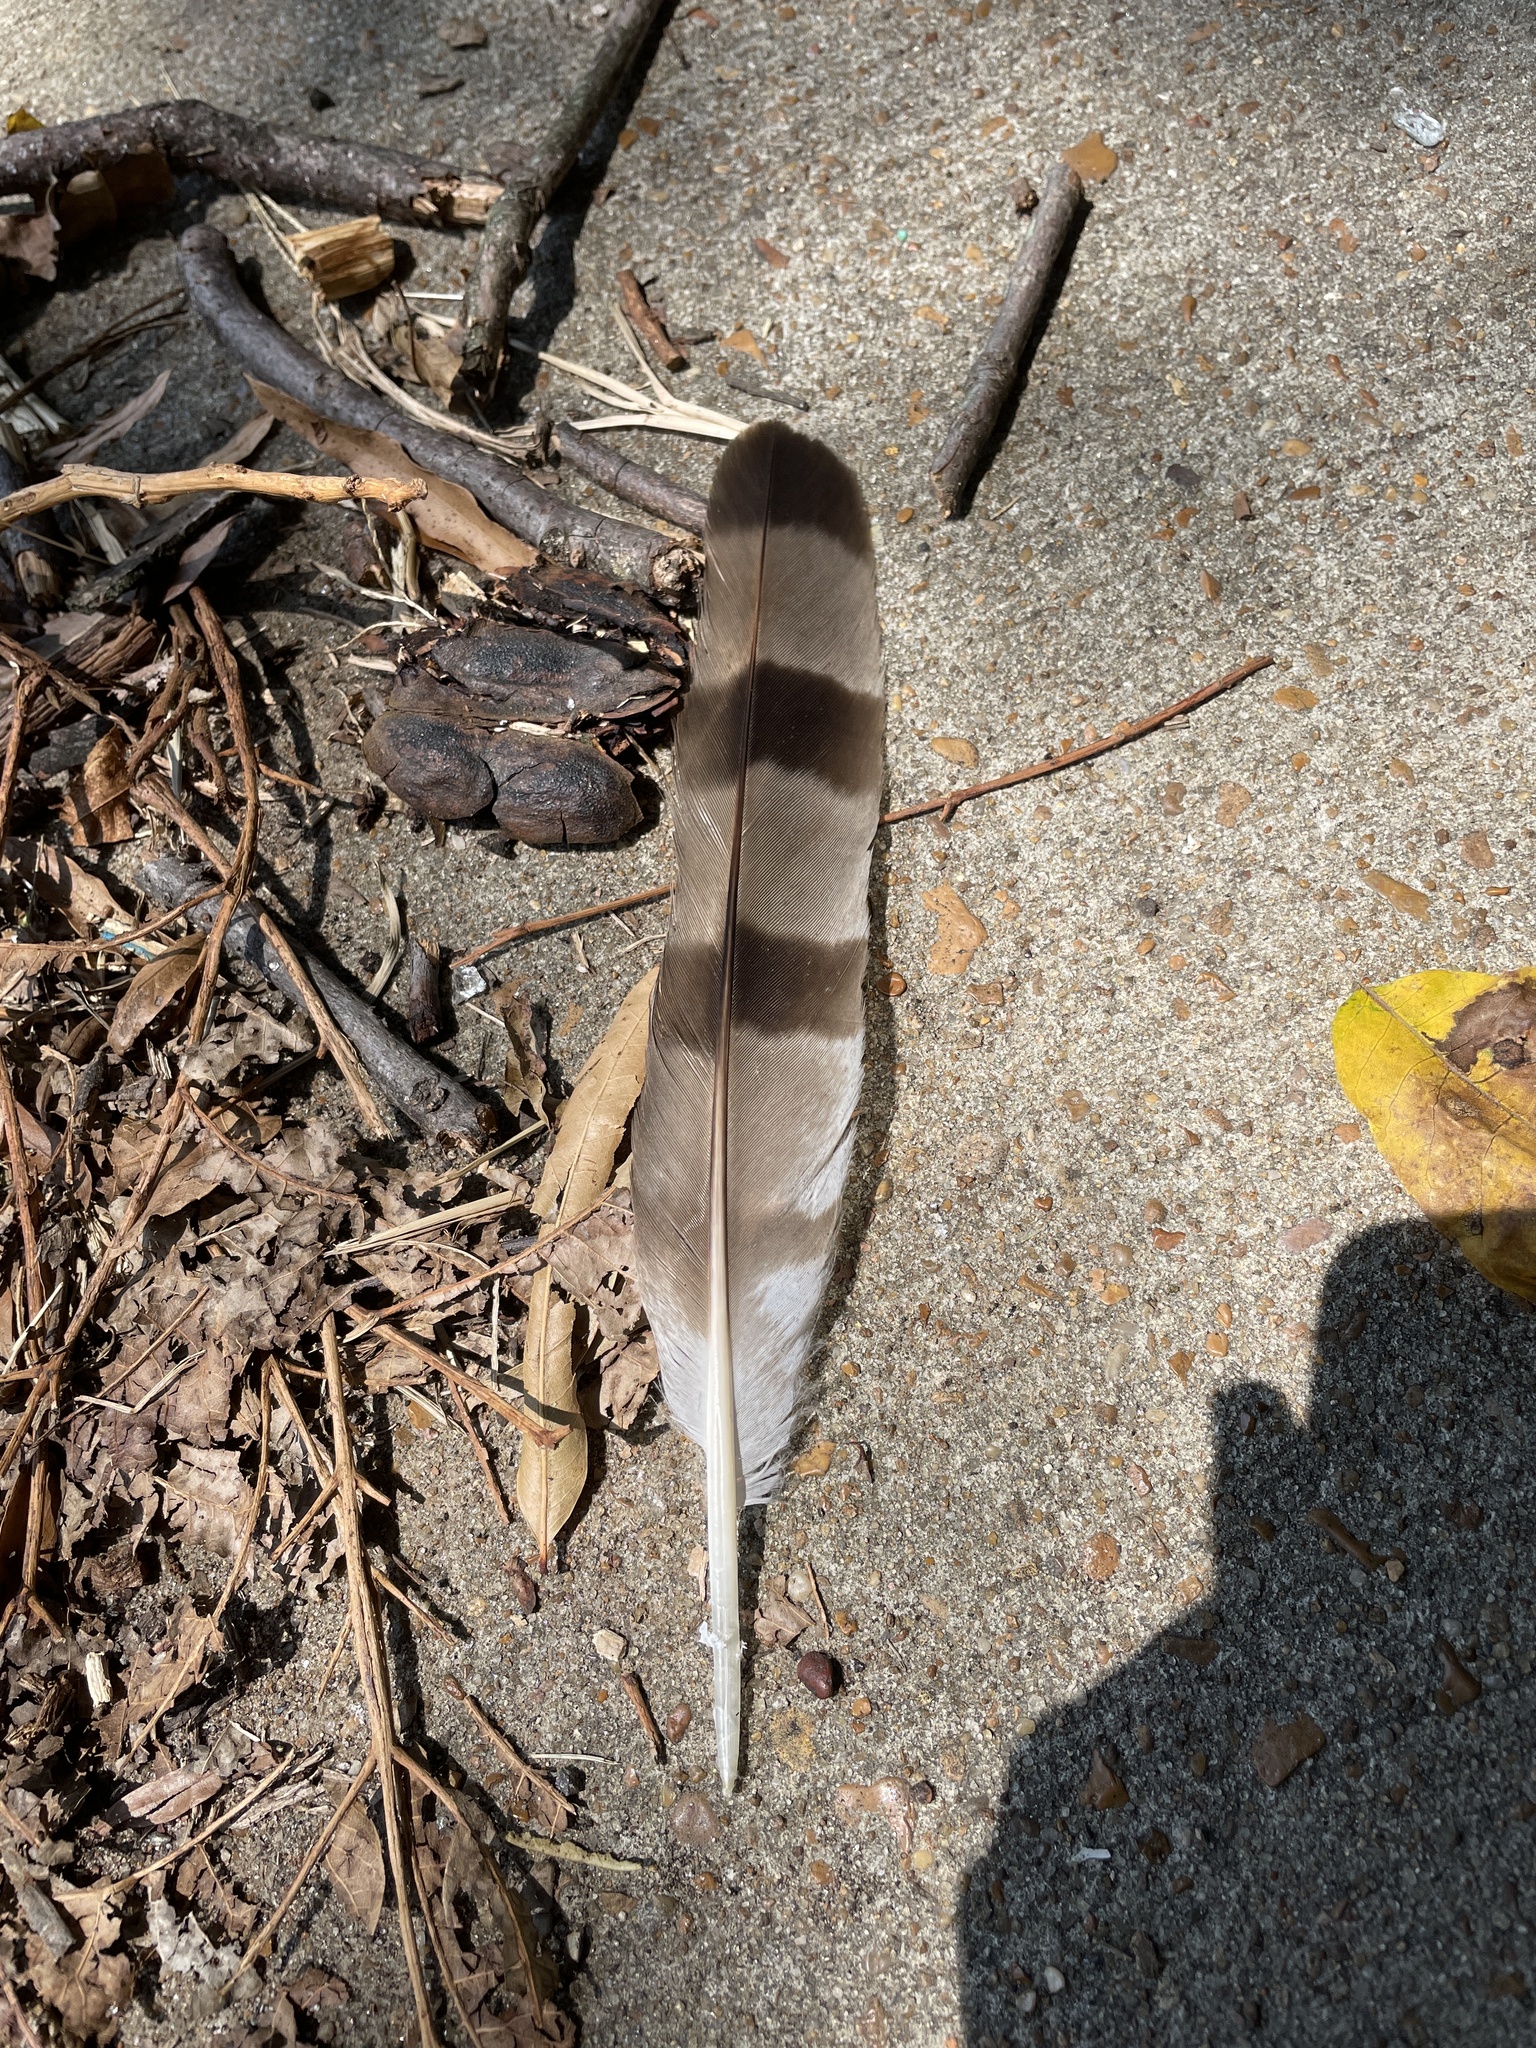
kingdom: Animalia
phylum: Chordata
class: Aves
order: Accipitriformes
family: Accipitridae
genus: Accipiter
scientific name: Accipiter cooperii
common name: Cooper's hawk
